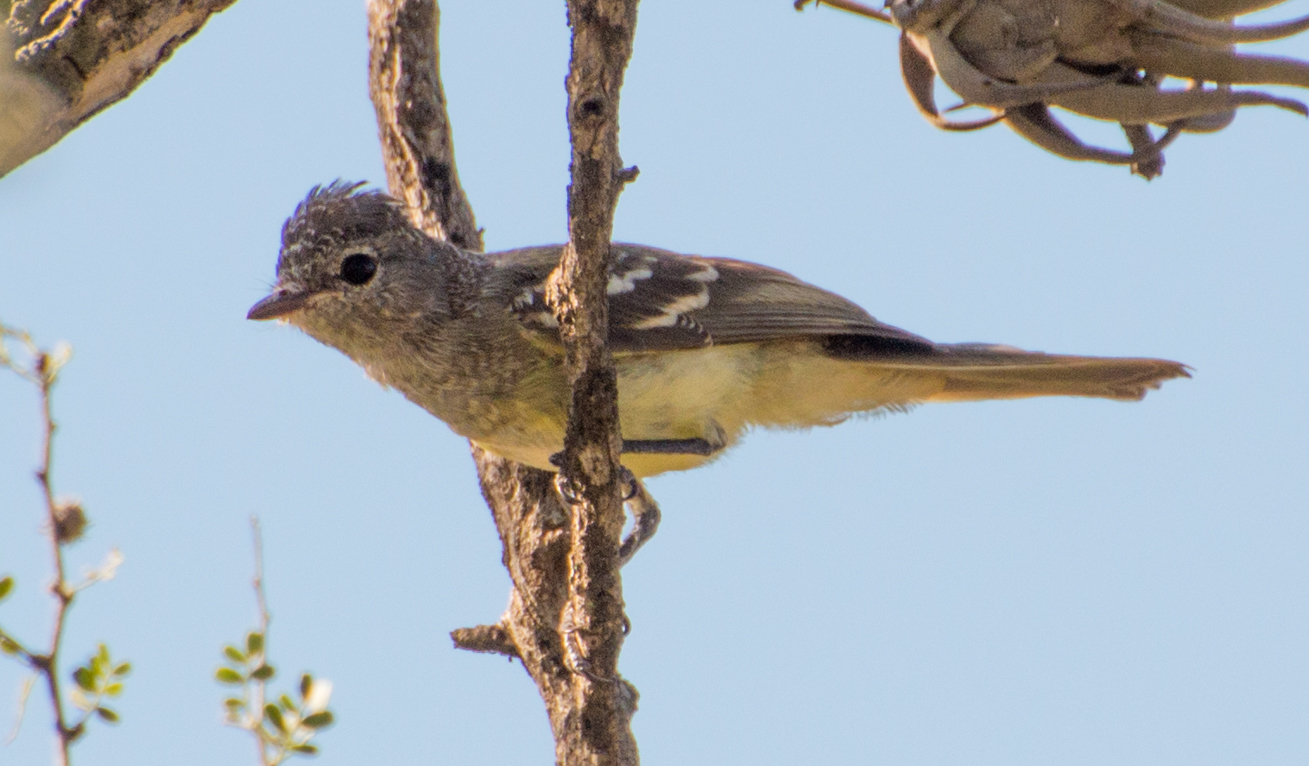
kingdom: Animalia
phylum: Chordata
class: Aves
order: Passeriformes
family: Tyrannidae
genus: Sublegatus
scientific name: Sublegatus modestus
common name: Southern scrub flycatcher
